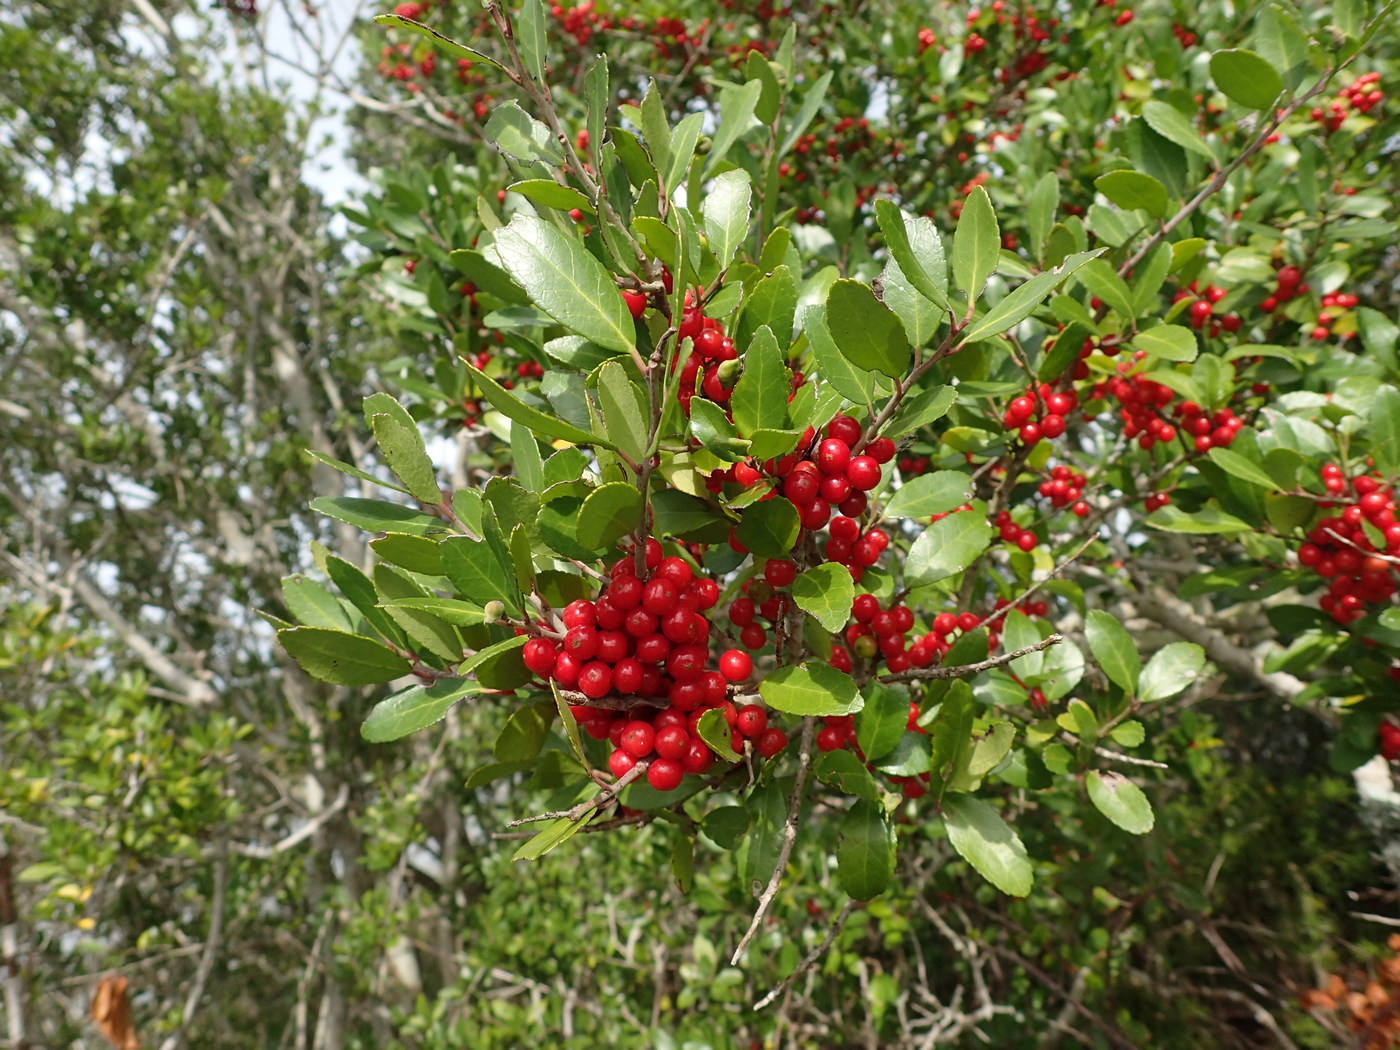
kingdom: Plantae
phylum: Tracheophyta
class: Magnoliopsida
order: Aquifoliales
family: Aquifoliaceae
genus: Ilex
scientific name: Ilex vomitoria
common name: Yaupon holly
